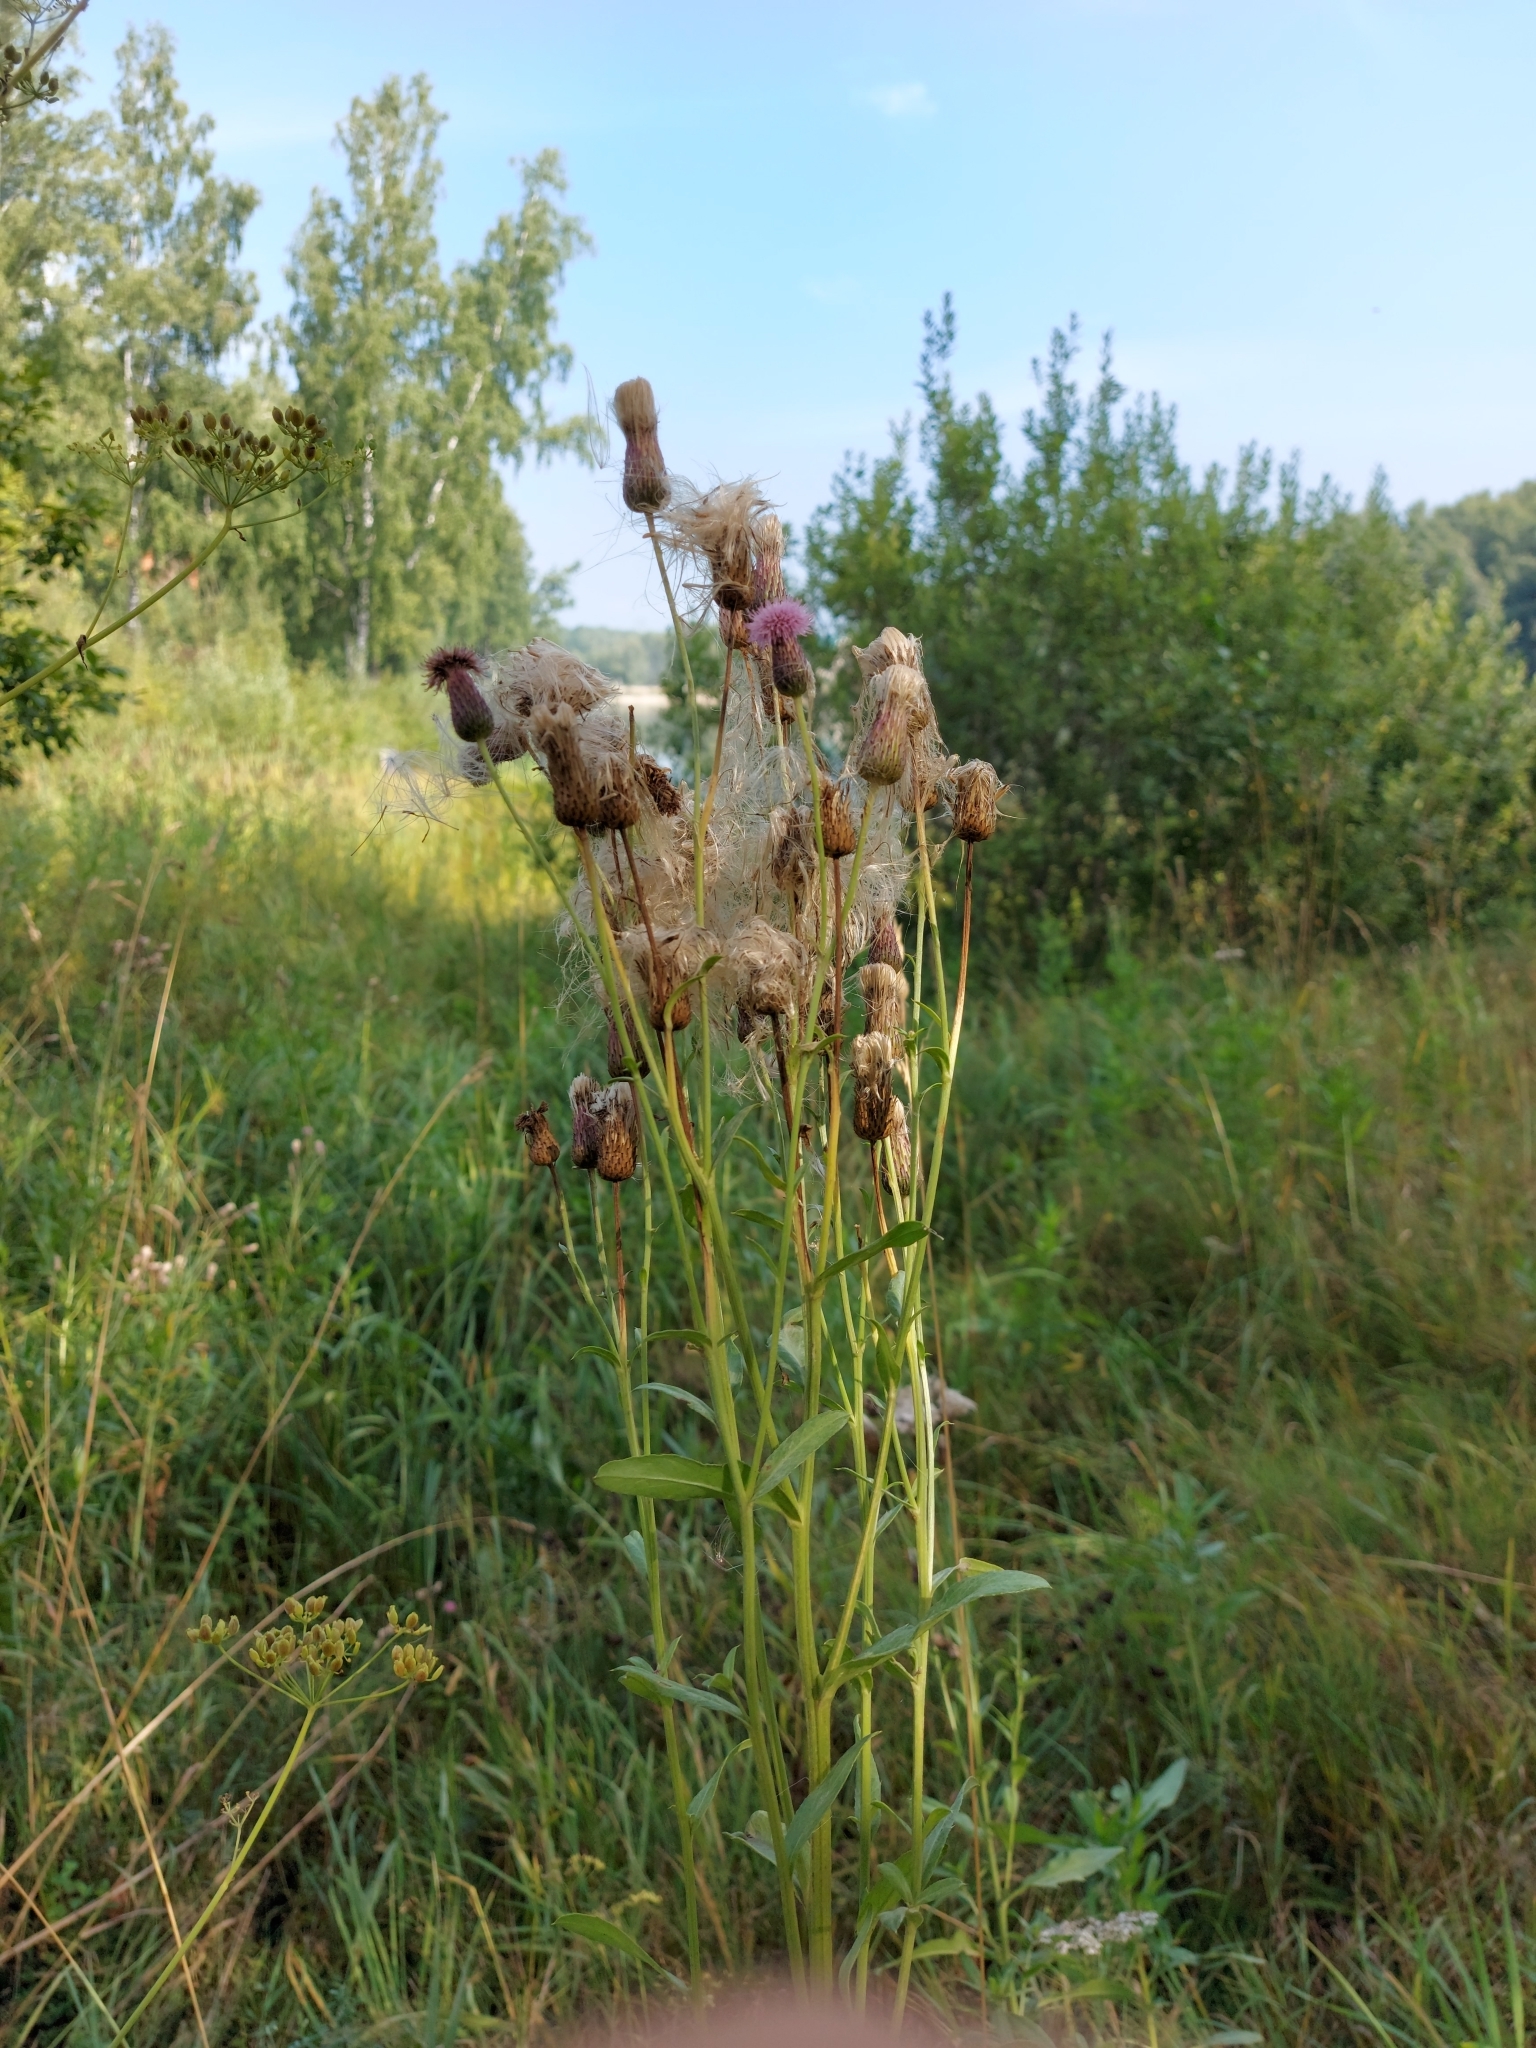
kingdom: Plantae
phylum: Tracheophyta
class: Magnoliopsida
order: Asterales
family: Asteraceae
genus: Cirsium
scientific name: Cirsium arvense
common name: Creeping thistle
